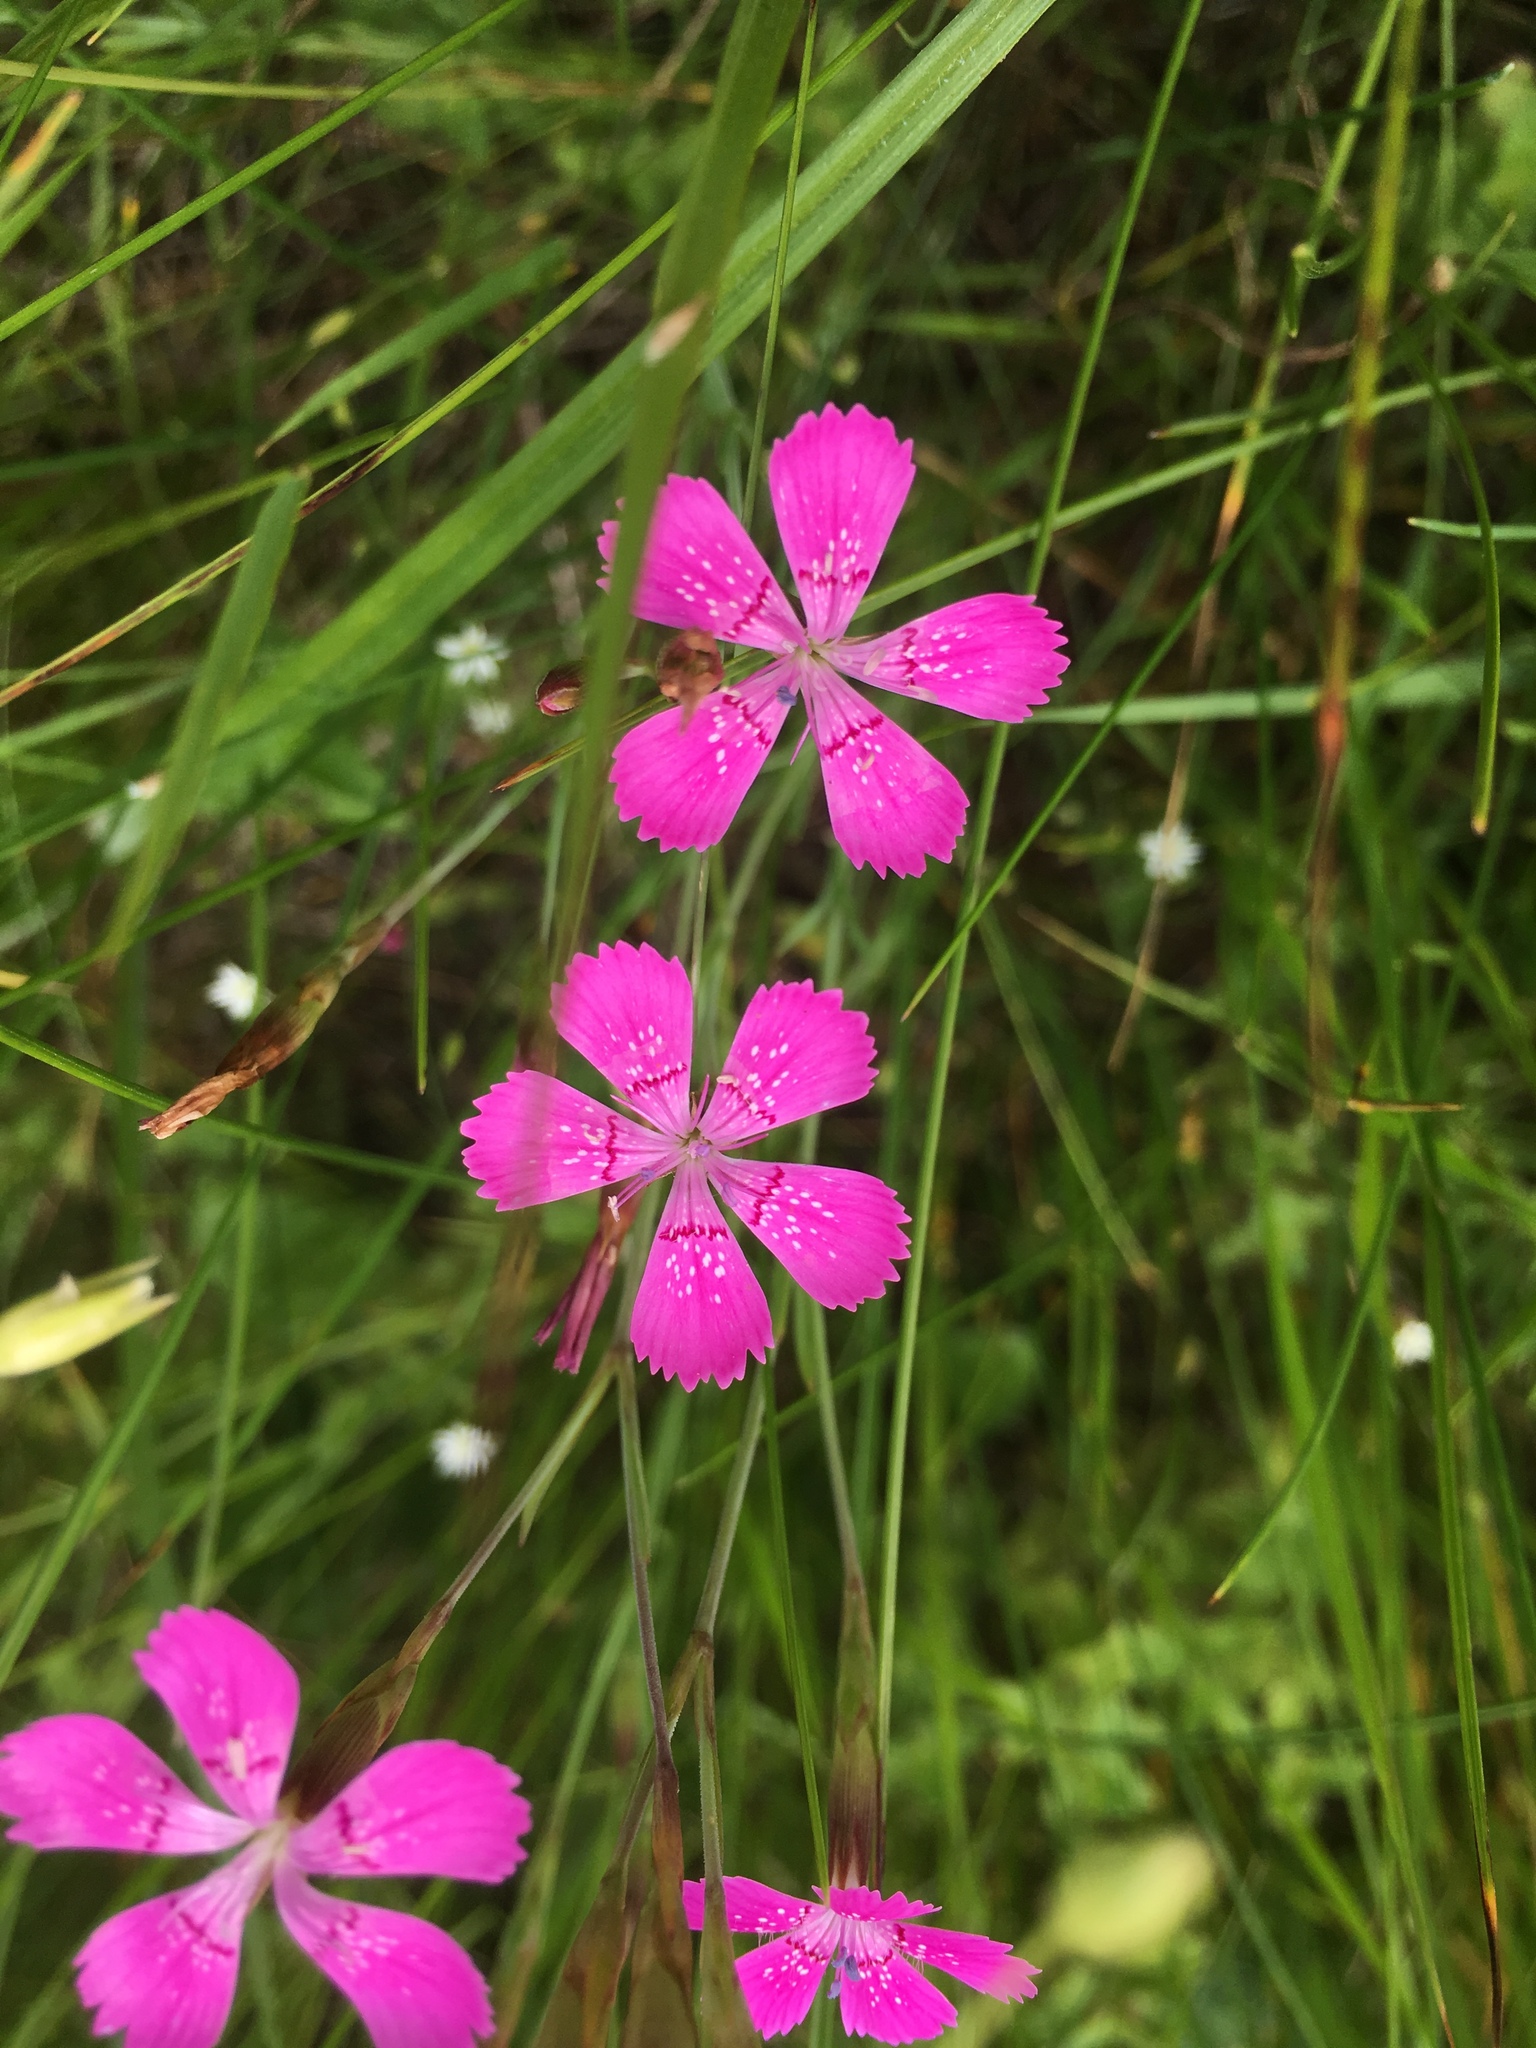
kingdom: Plantae
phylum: Tracheophyta
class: Magnoliopsida
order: Caryophyllales
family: Caryophyllaceae
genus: Dianthus
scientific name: Dianthus deltoides
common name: Maiden pink
